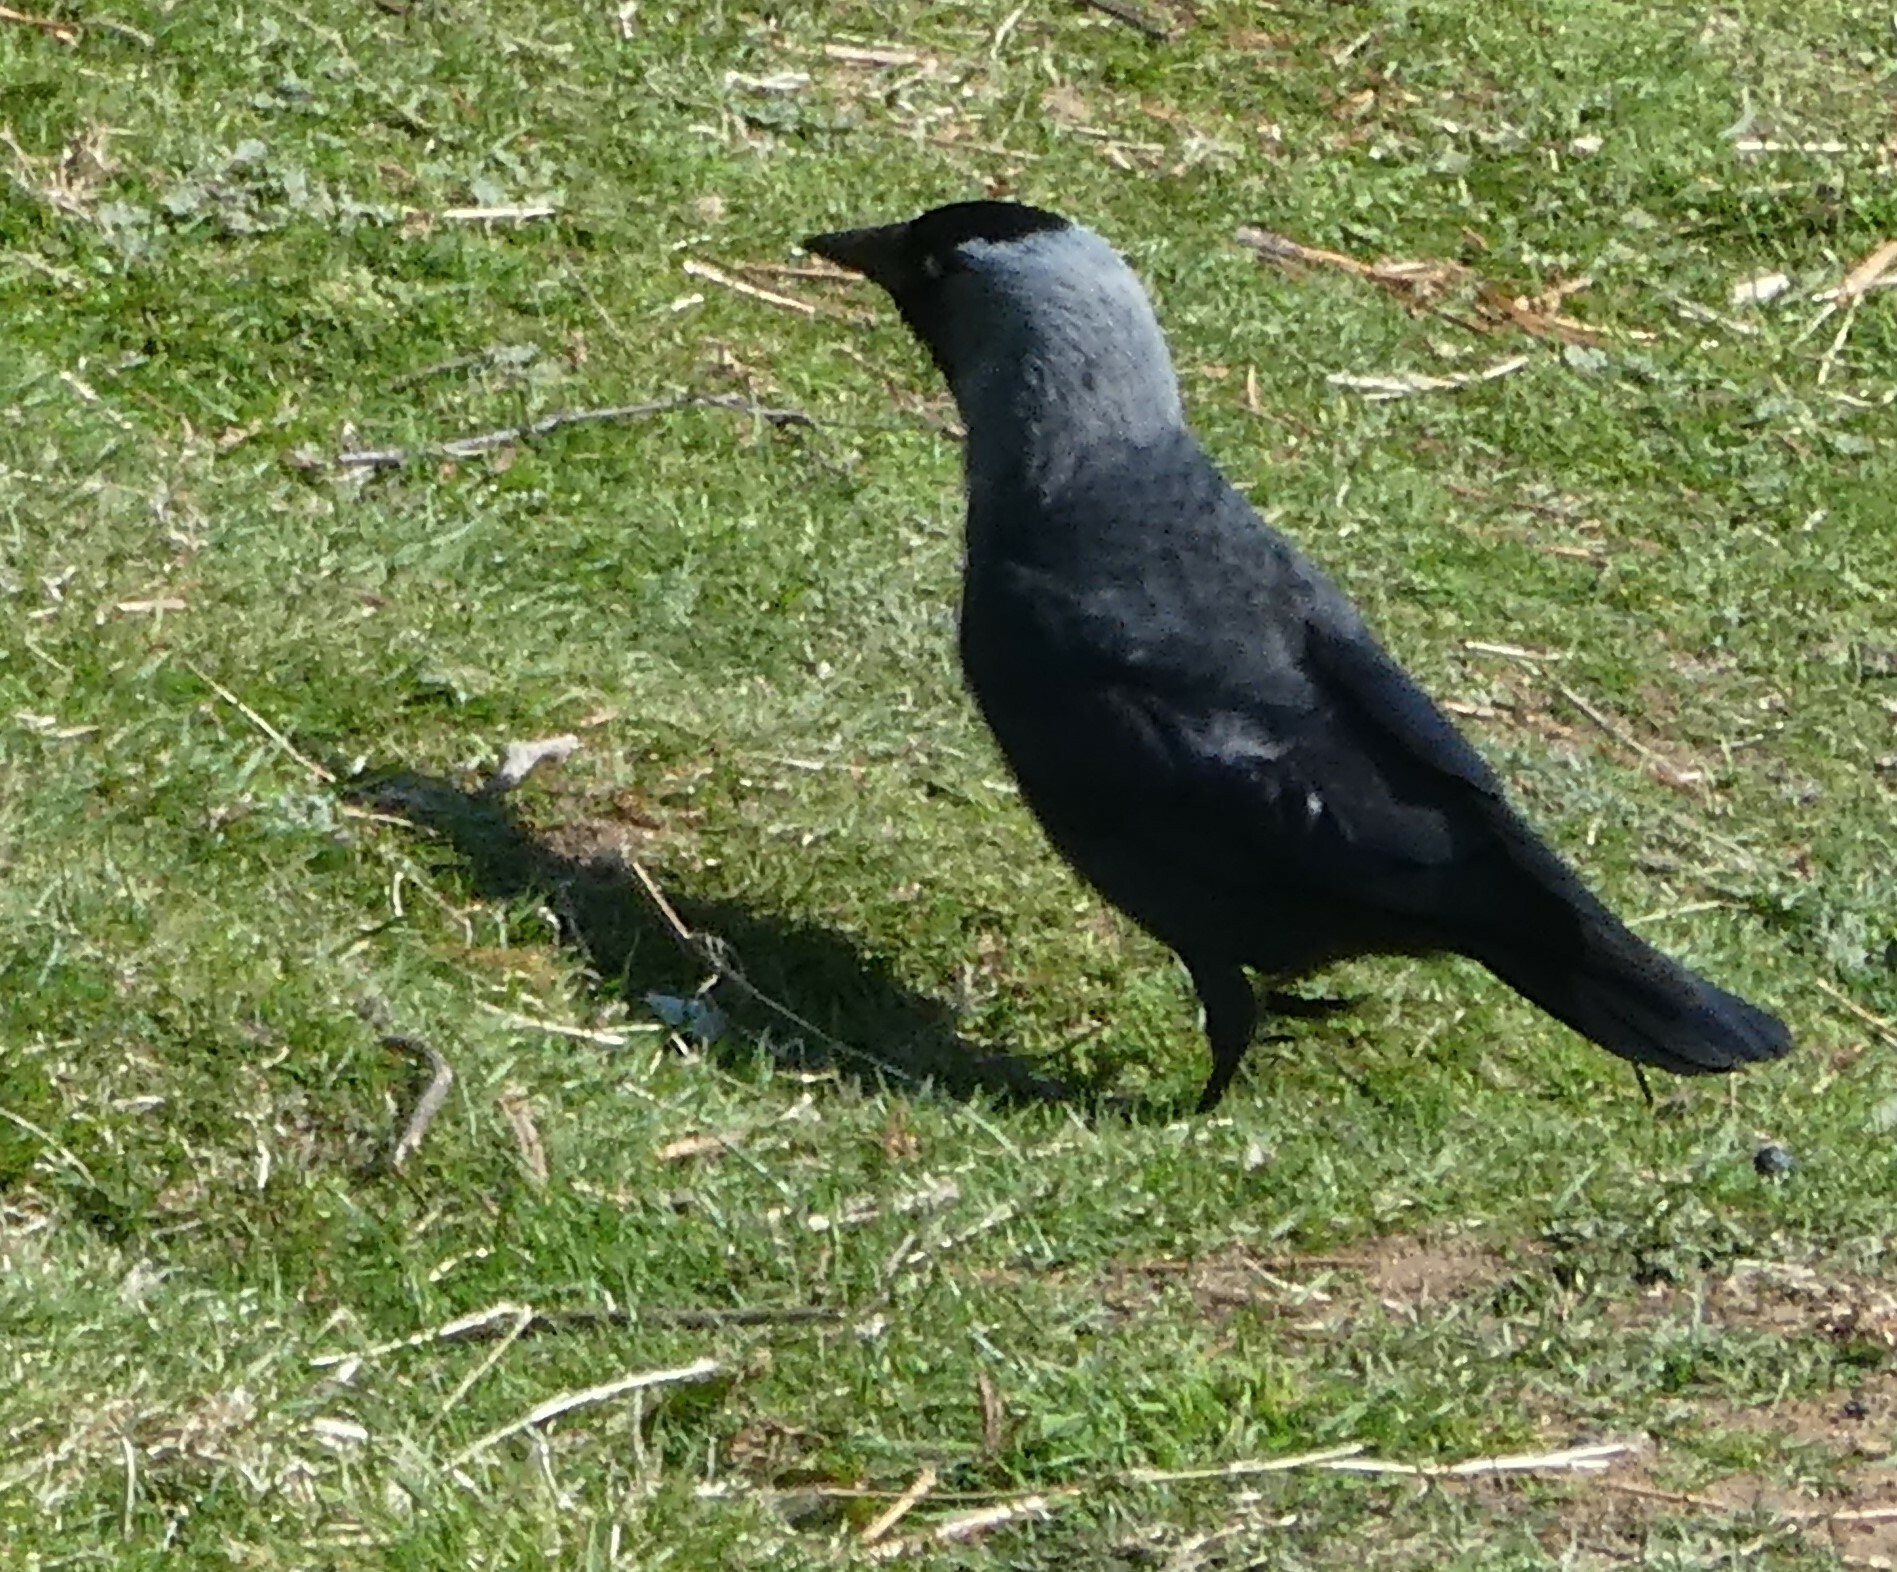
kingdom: Animalia
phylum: Chordata
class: Aves
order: Passeriformes
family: Corvidae
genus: Coloeus
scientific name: Coloeus monedula
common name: Western jackdaw
